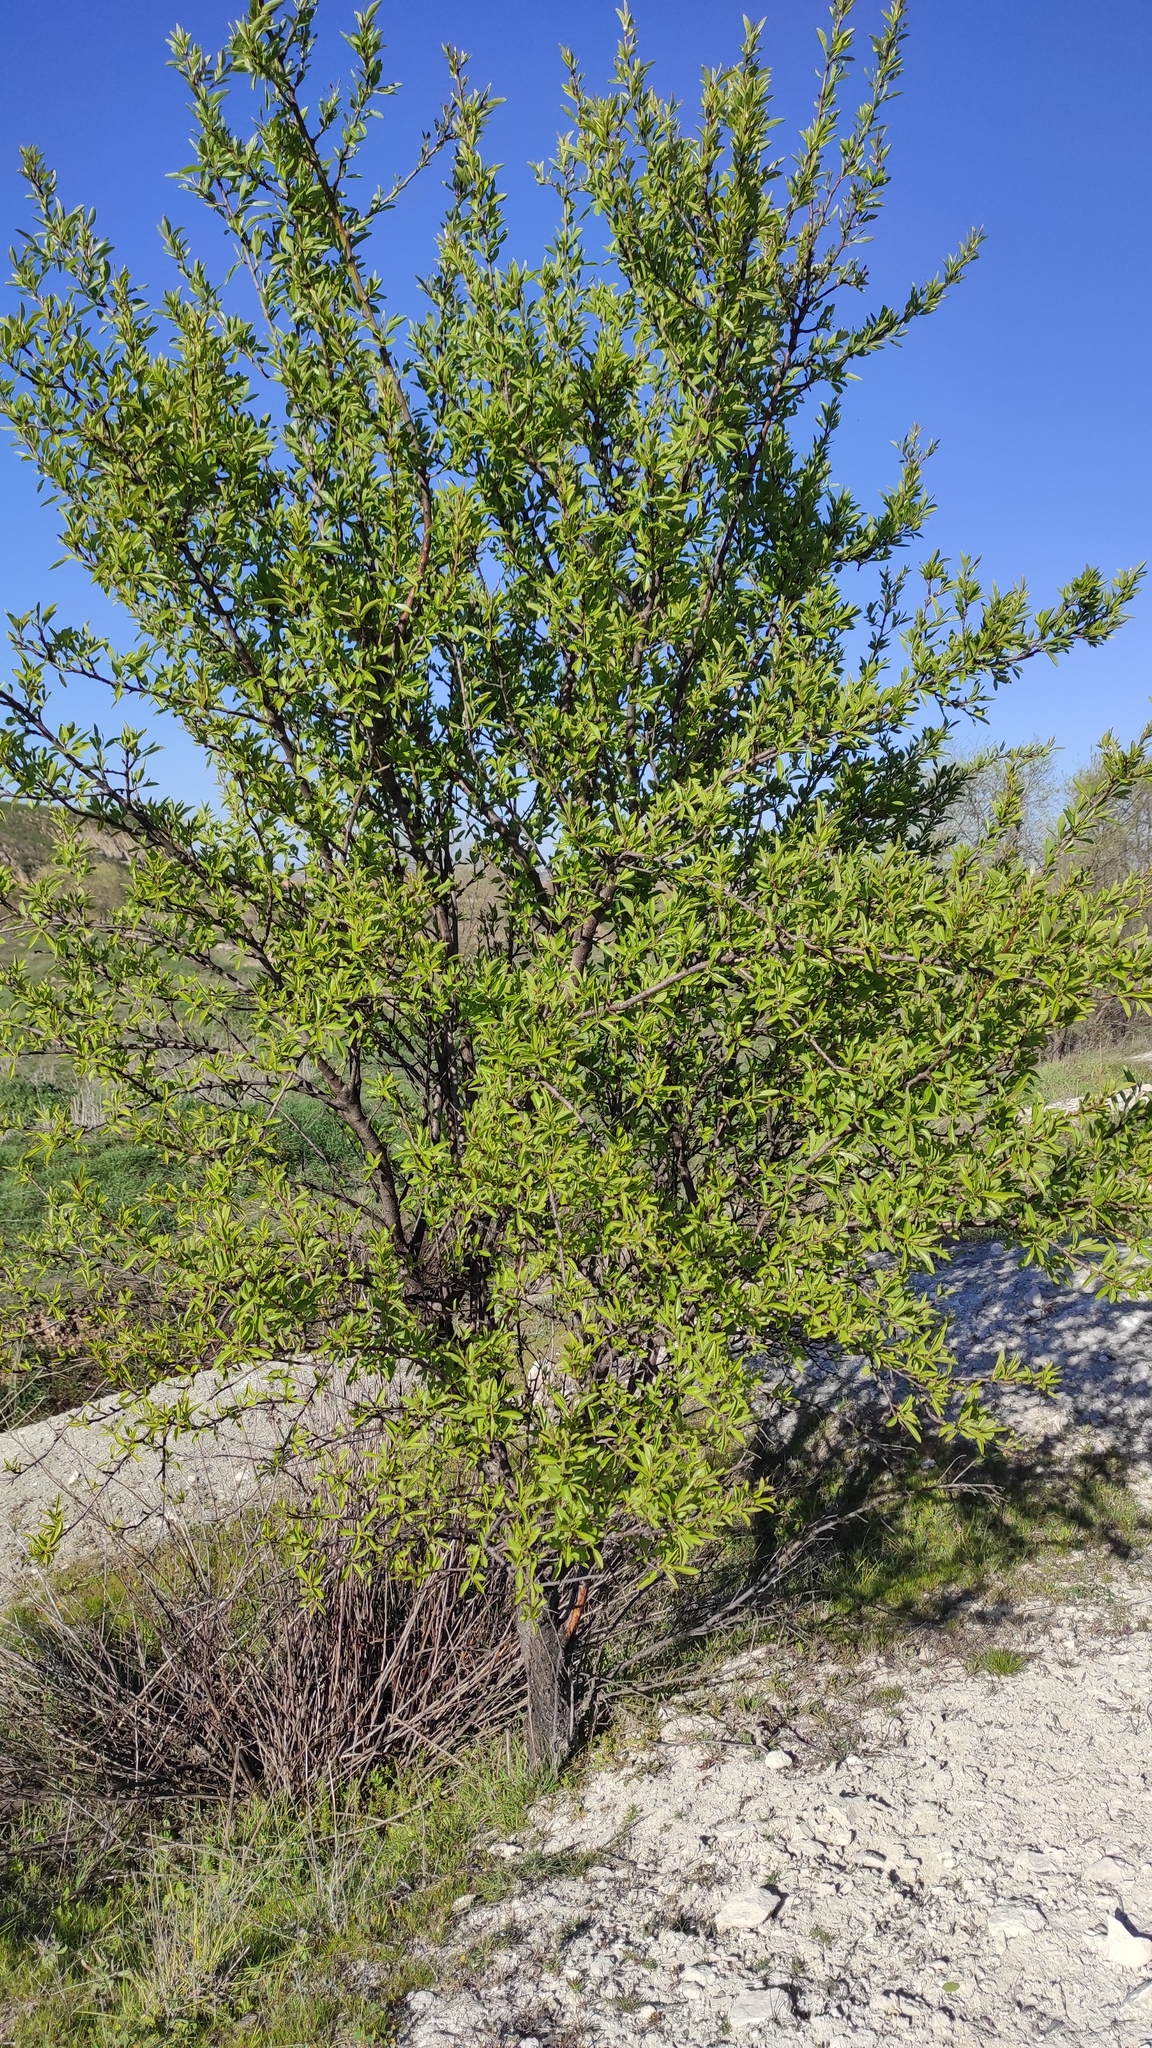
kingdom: Plantae
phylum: Tracheophyta
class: Magnoliopsida
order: Rosales
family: Ulmaceae
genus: Ulmus
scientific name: Ulmus pumila
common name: Siberian elm
